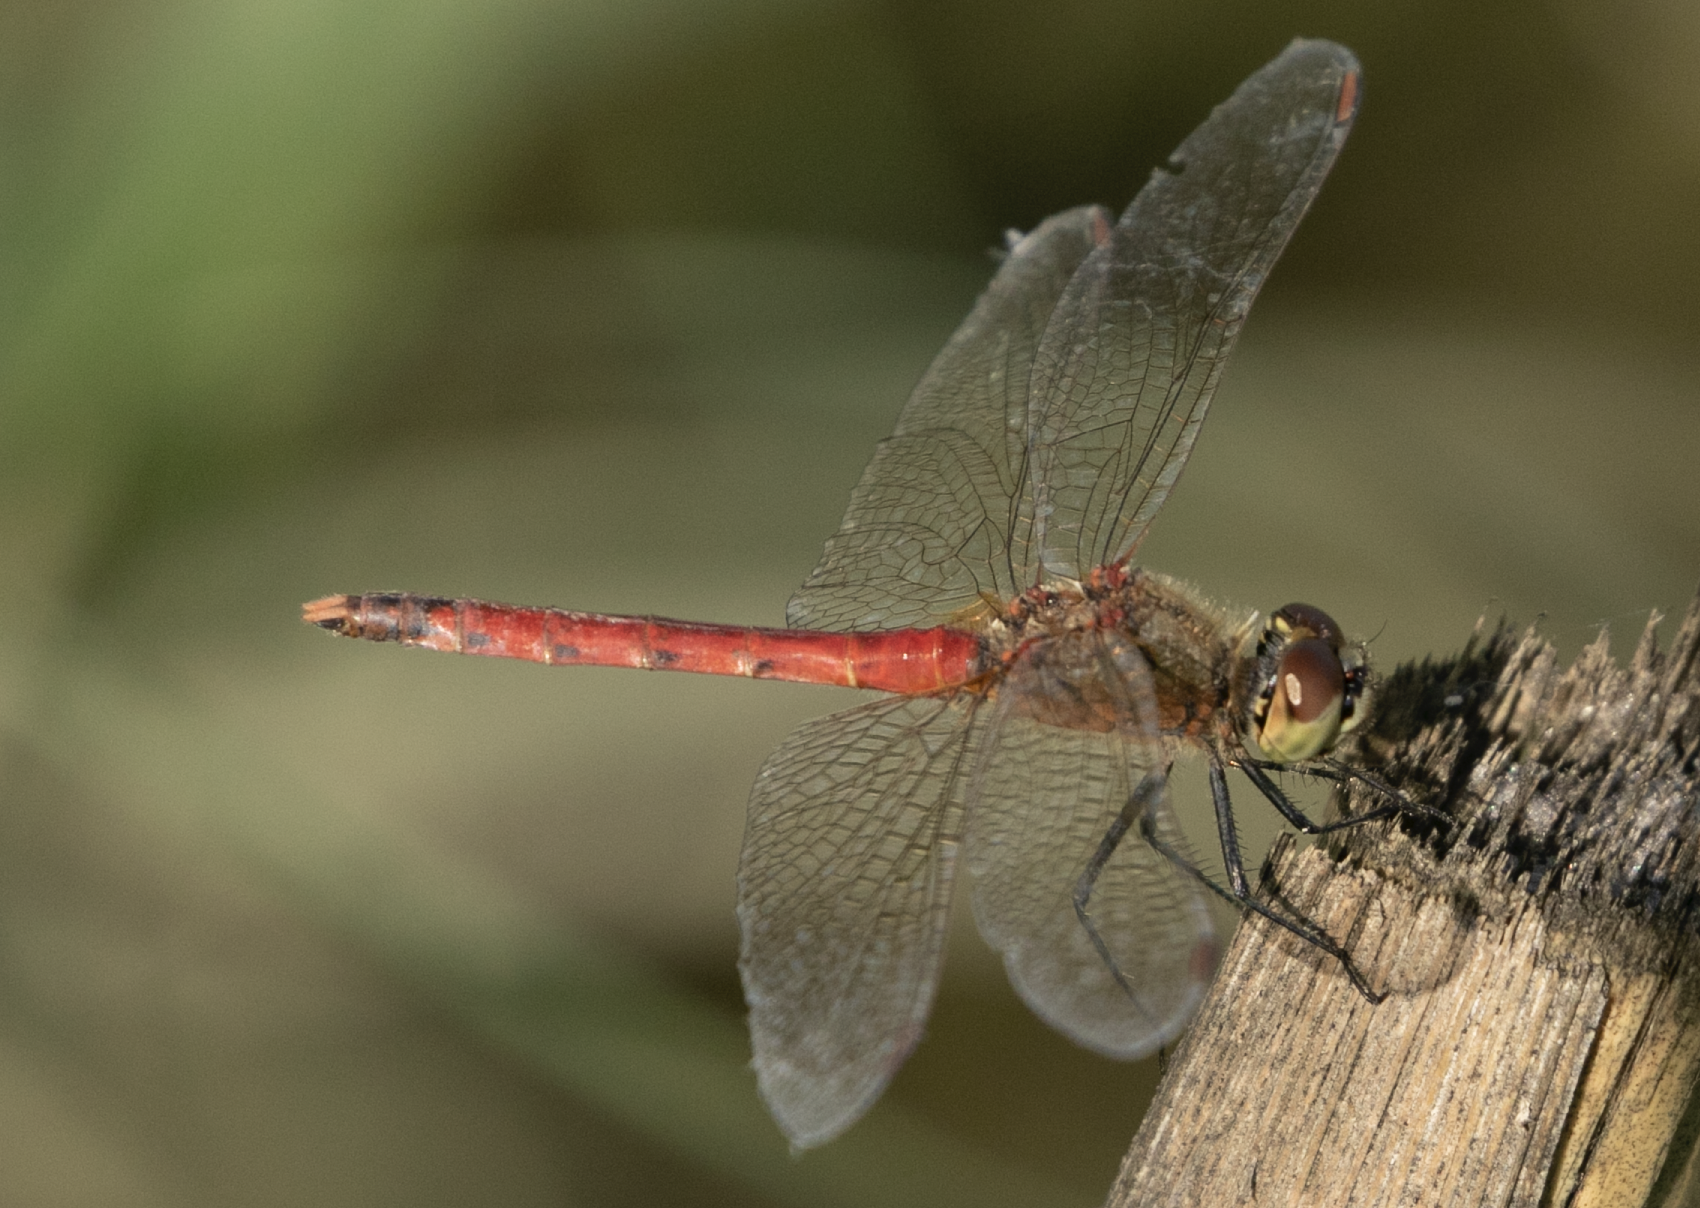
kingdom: Animalia
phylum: Arthropoda
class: Insecta
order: Odonata
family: Libellulidae
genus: Sympetrum
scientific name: Sympetrum depressiusculum
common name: Spotted darter
